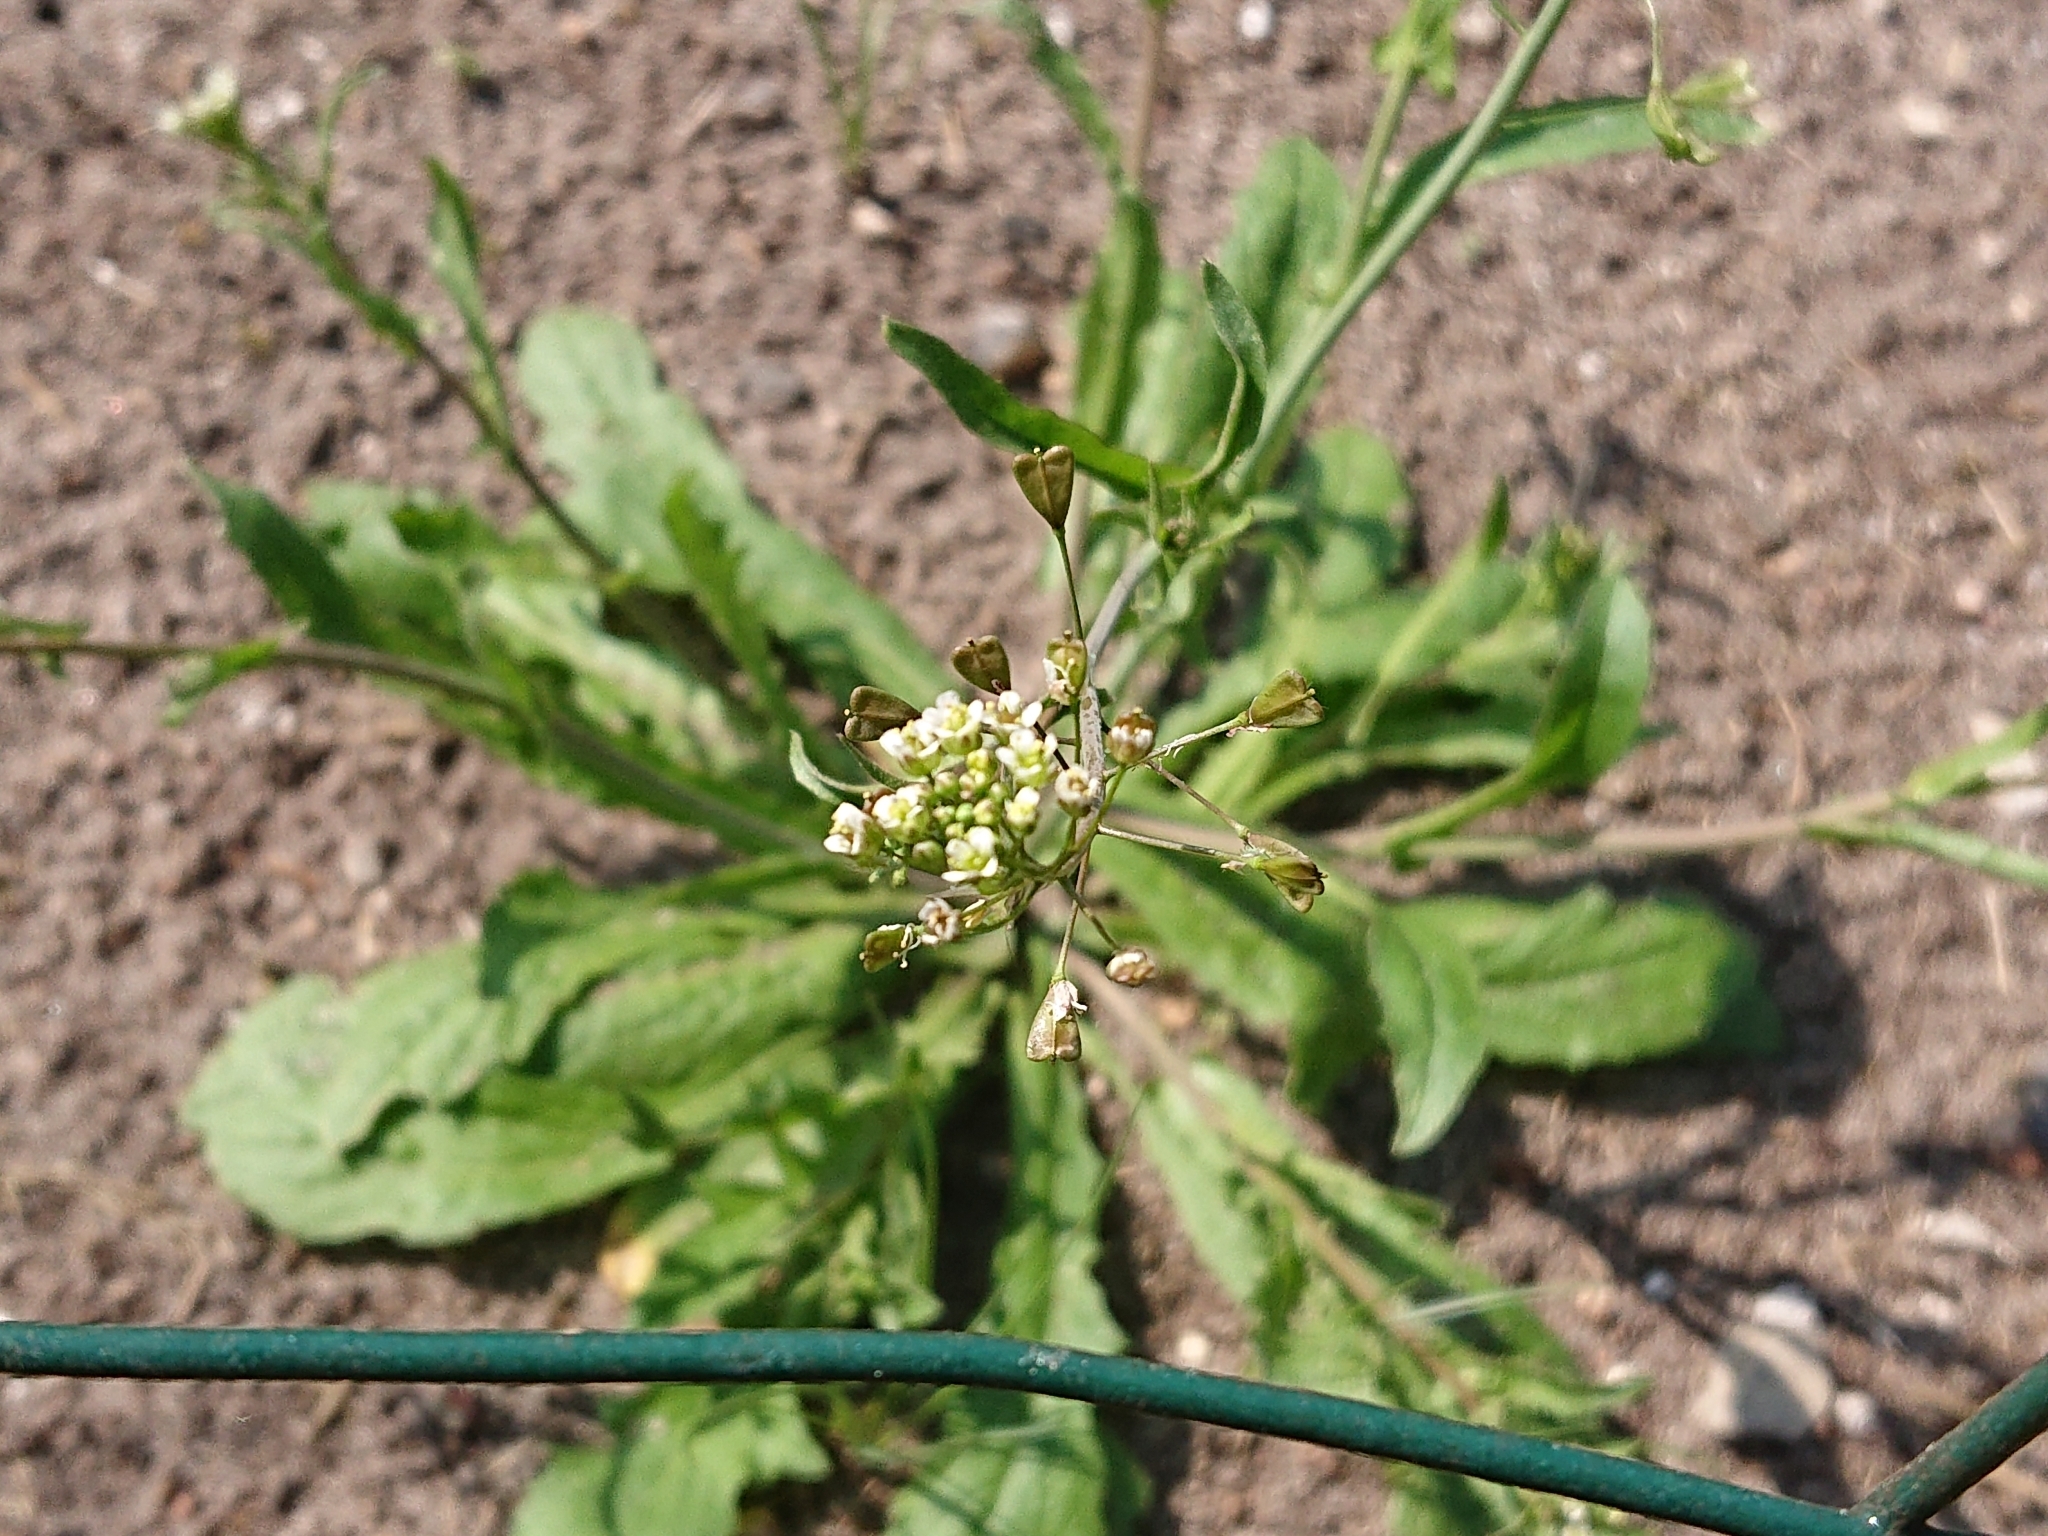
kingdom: Plantae
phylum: Tracheophyta
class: Magnoliopsida
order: Brassicales
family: Brassicaceae
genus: Capsella
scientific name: Capsella bursa-pastoris
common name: Shepherd's purse
